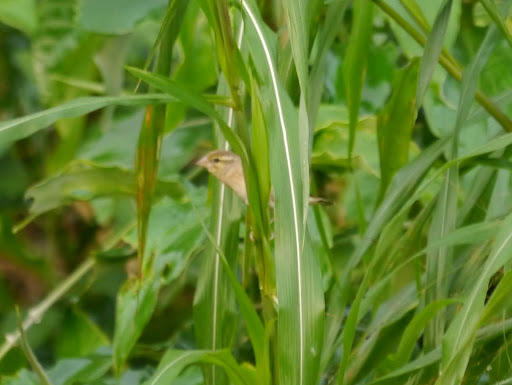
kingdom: Animalia
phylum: Chordata
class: Aves
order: Passeriformes
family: Ploceidae
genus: Quelea
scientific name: Quelea erythrops
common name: Red-headed quelea
